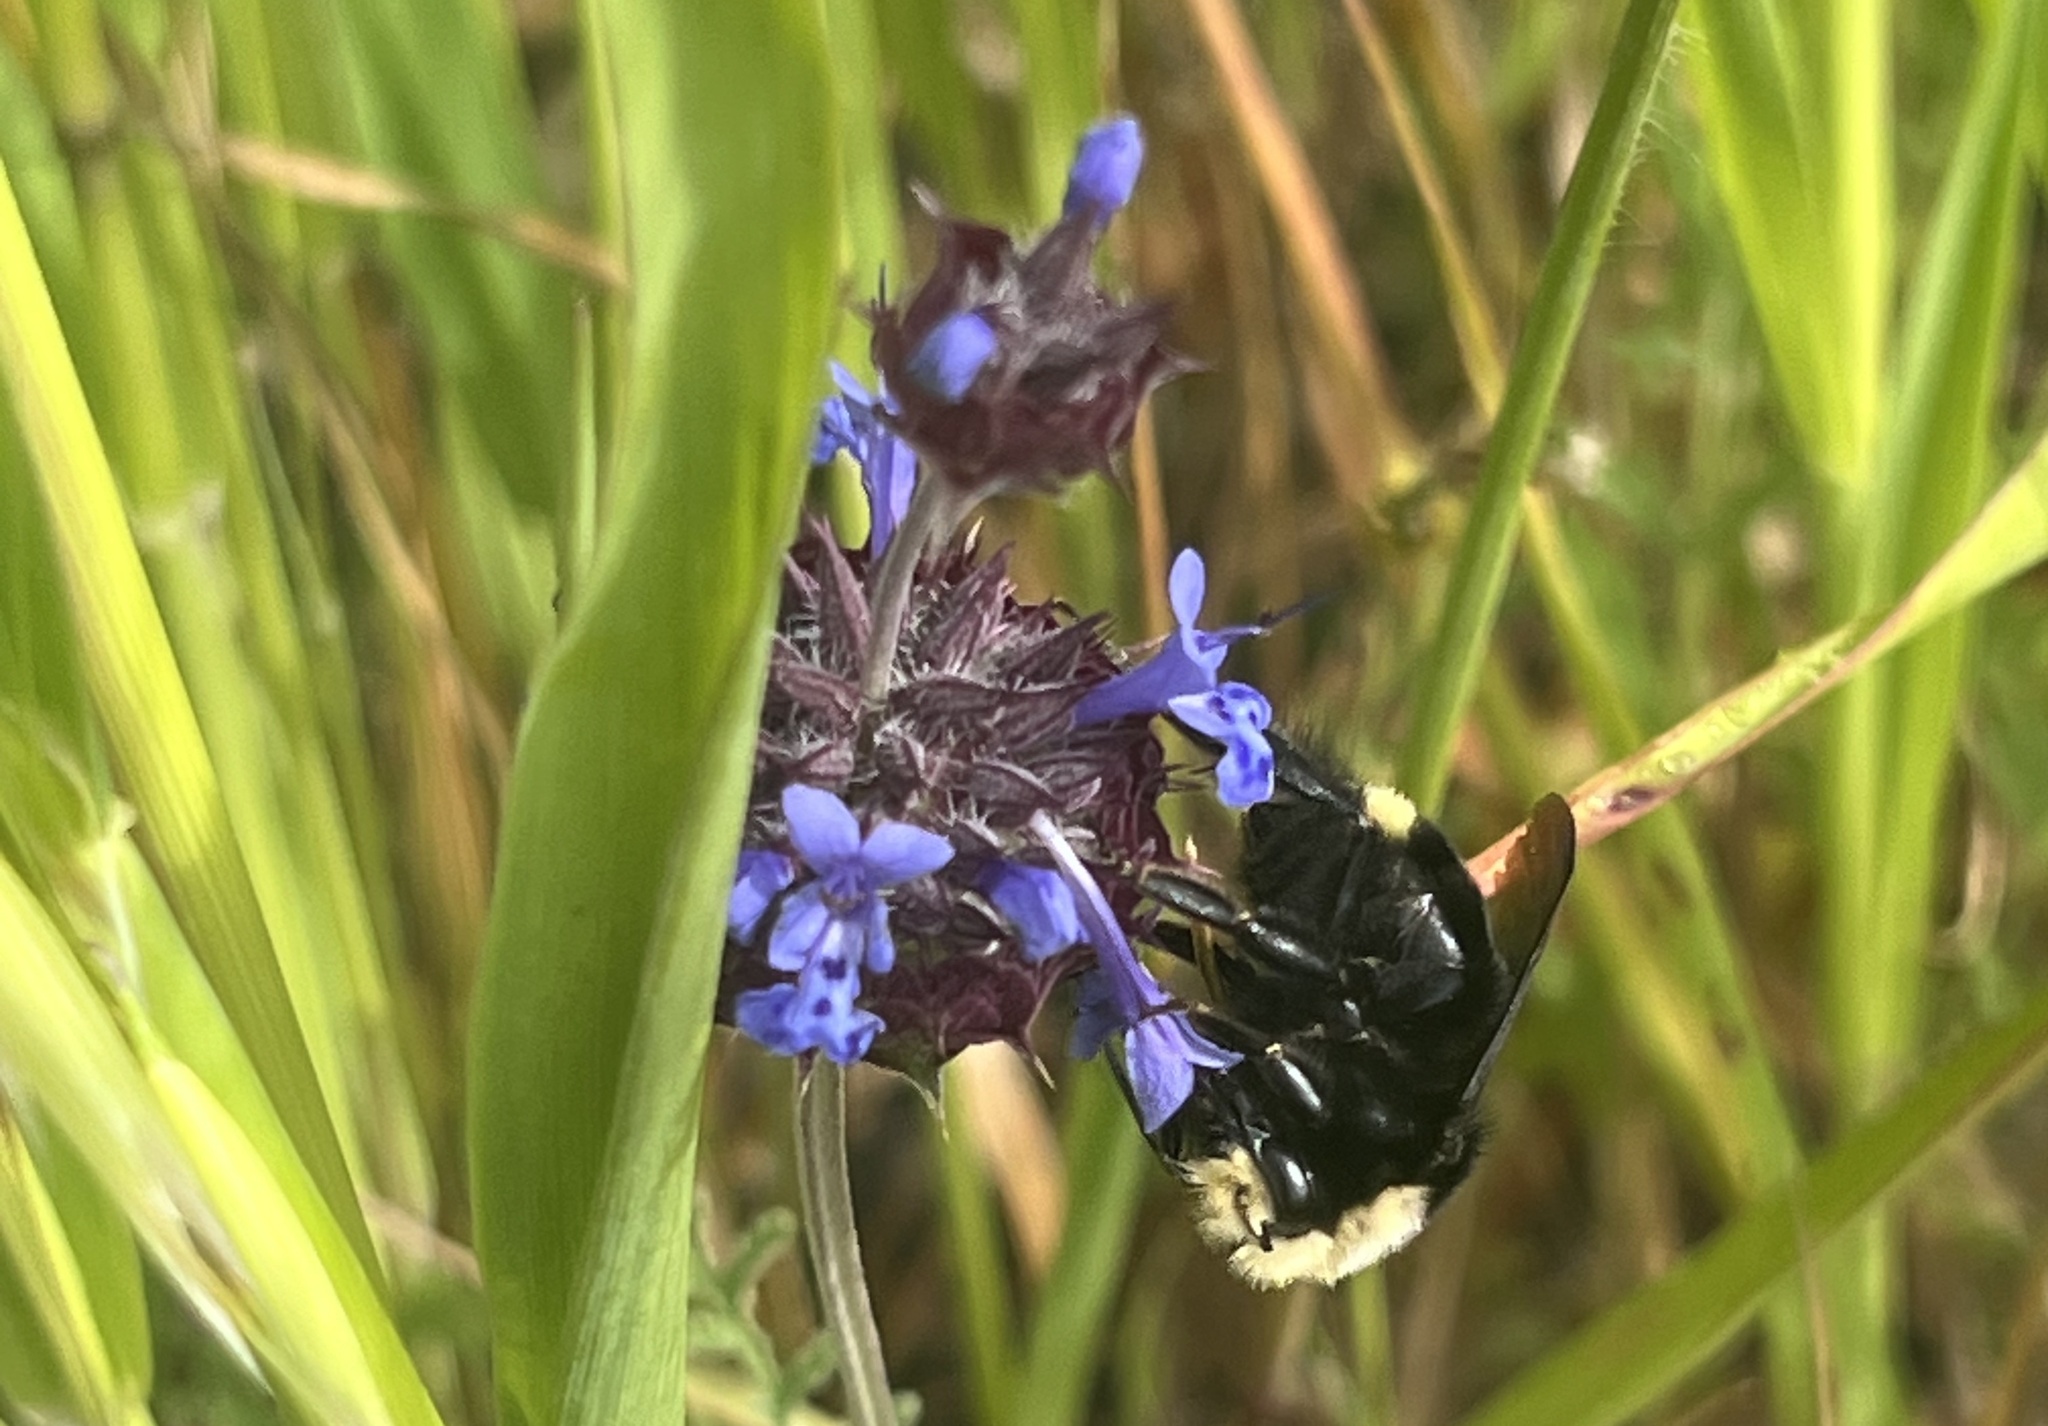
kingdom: Animalia
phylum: Arthropoda
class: Insecta
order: Hymenoptera
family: Apidae
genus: Bombus
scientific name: Bombus vosnesenskii
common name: Vosnesensky bumble bee
